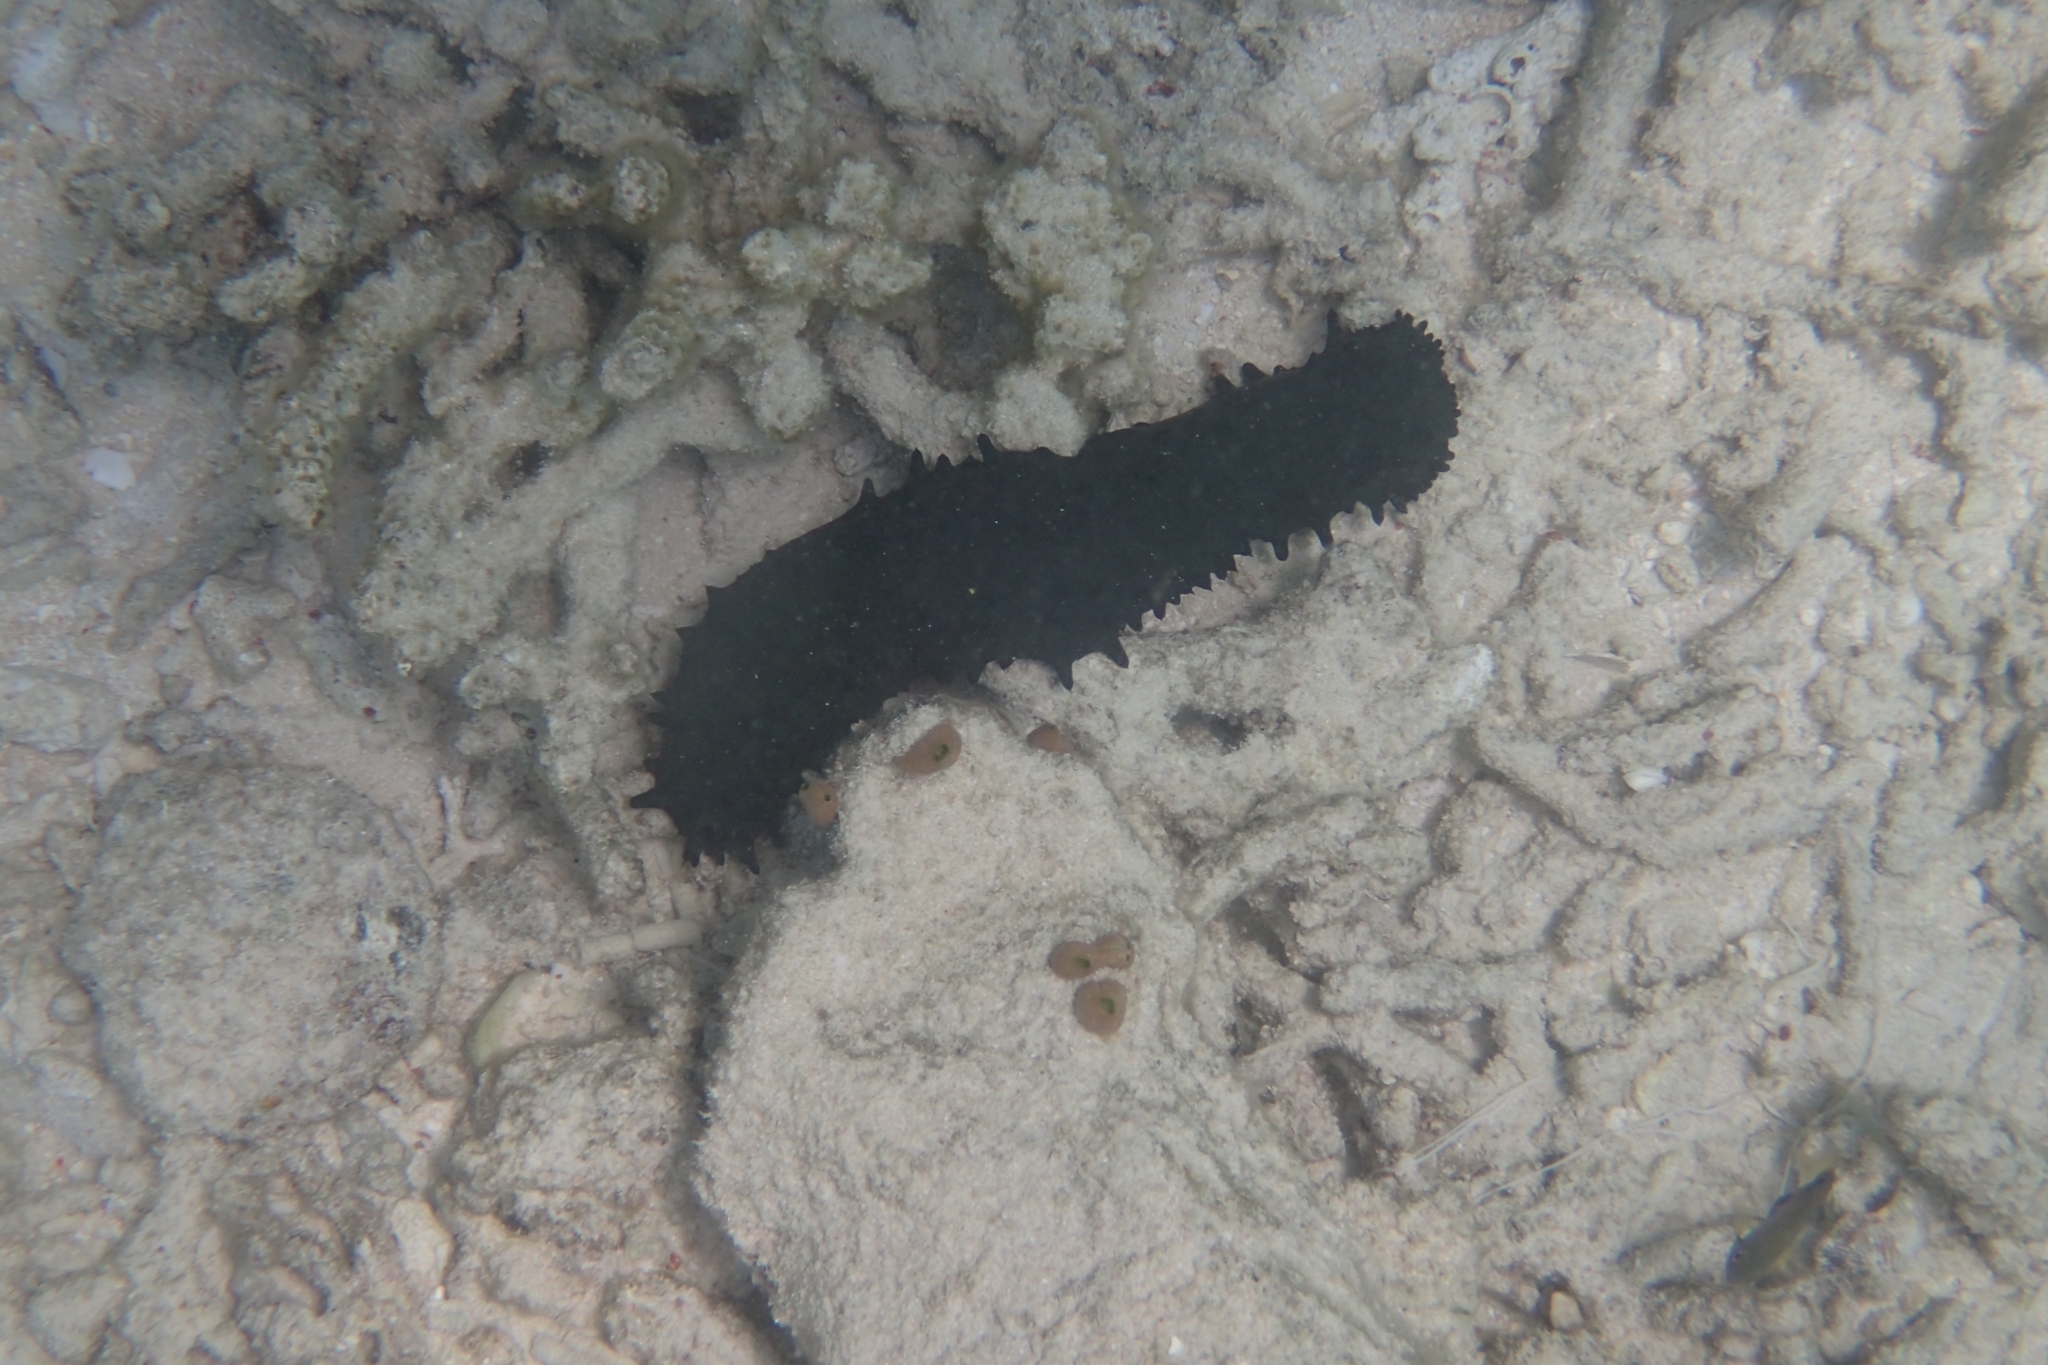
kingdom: Animalia
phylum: Echinodermata
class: Holothuroidea
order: Synallactida
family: Stichopodidae
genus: Stichopus
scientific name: Stichopus chloronotus
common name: Greenfish
